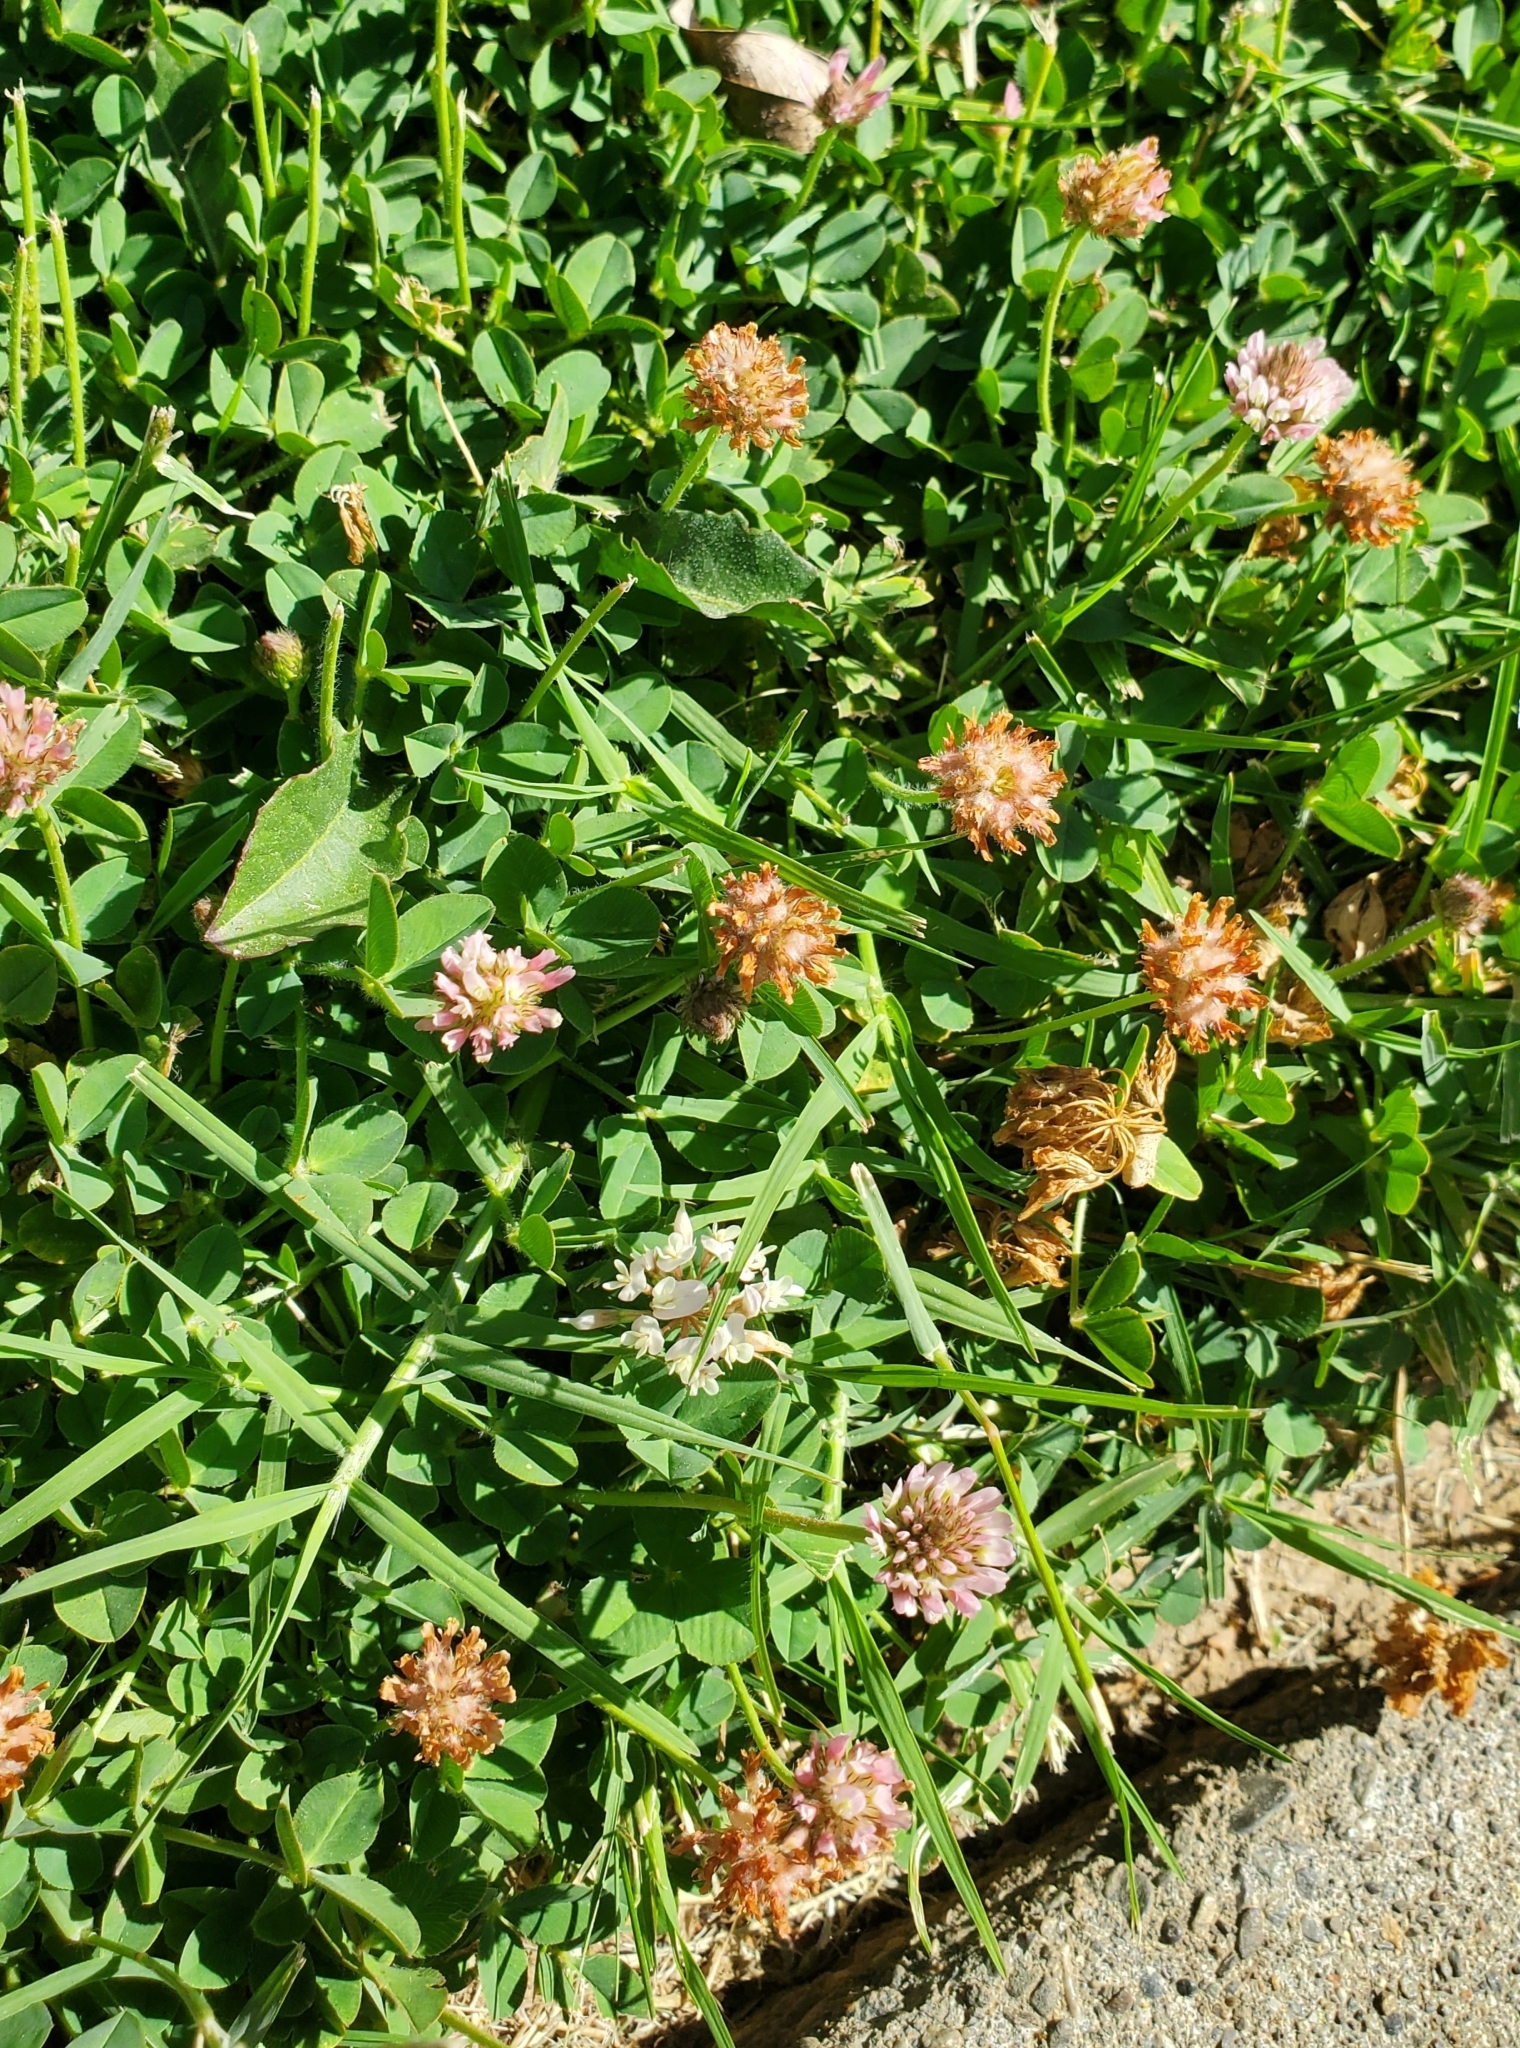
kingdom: Plantae
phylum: Tracheophyta
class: Magnoliopsida
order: Fabales
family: Fabaceae
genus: Trifolium
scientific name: Trifolium fragiferum
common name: Strawberry clover
